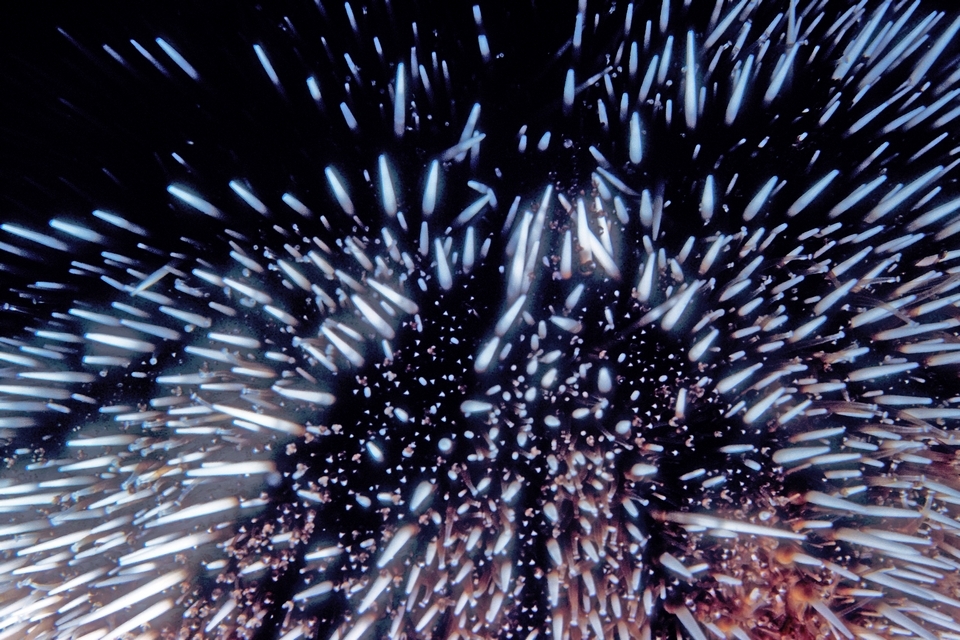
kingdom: Animalia
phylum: Echinodermata
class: Echinoidea
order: Camarodonta
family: Toxopneustidae
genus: Tripneustes
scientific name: Tripneustes ventricosus
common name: West indian sea egg
